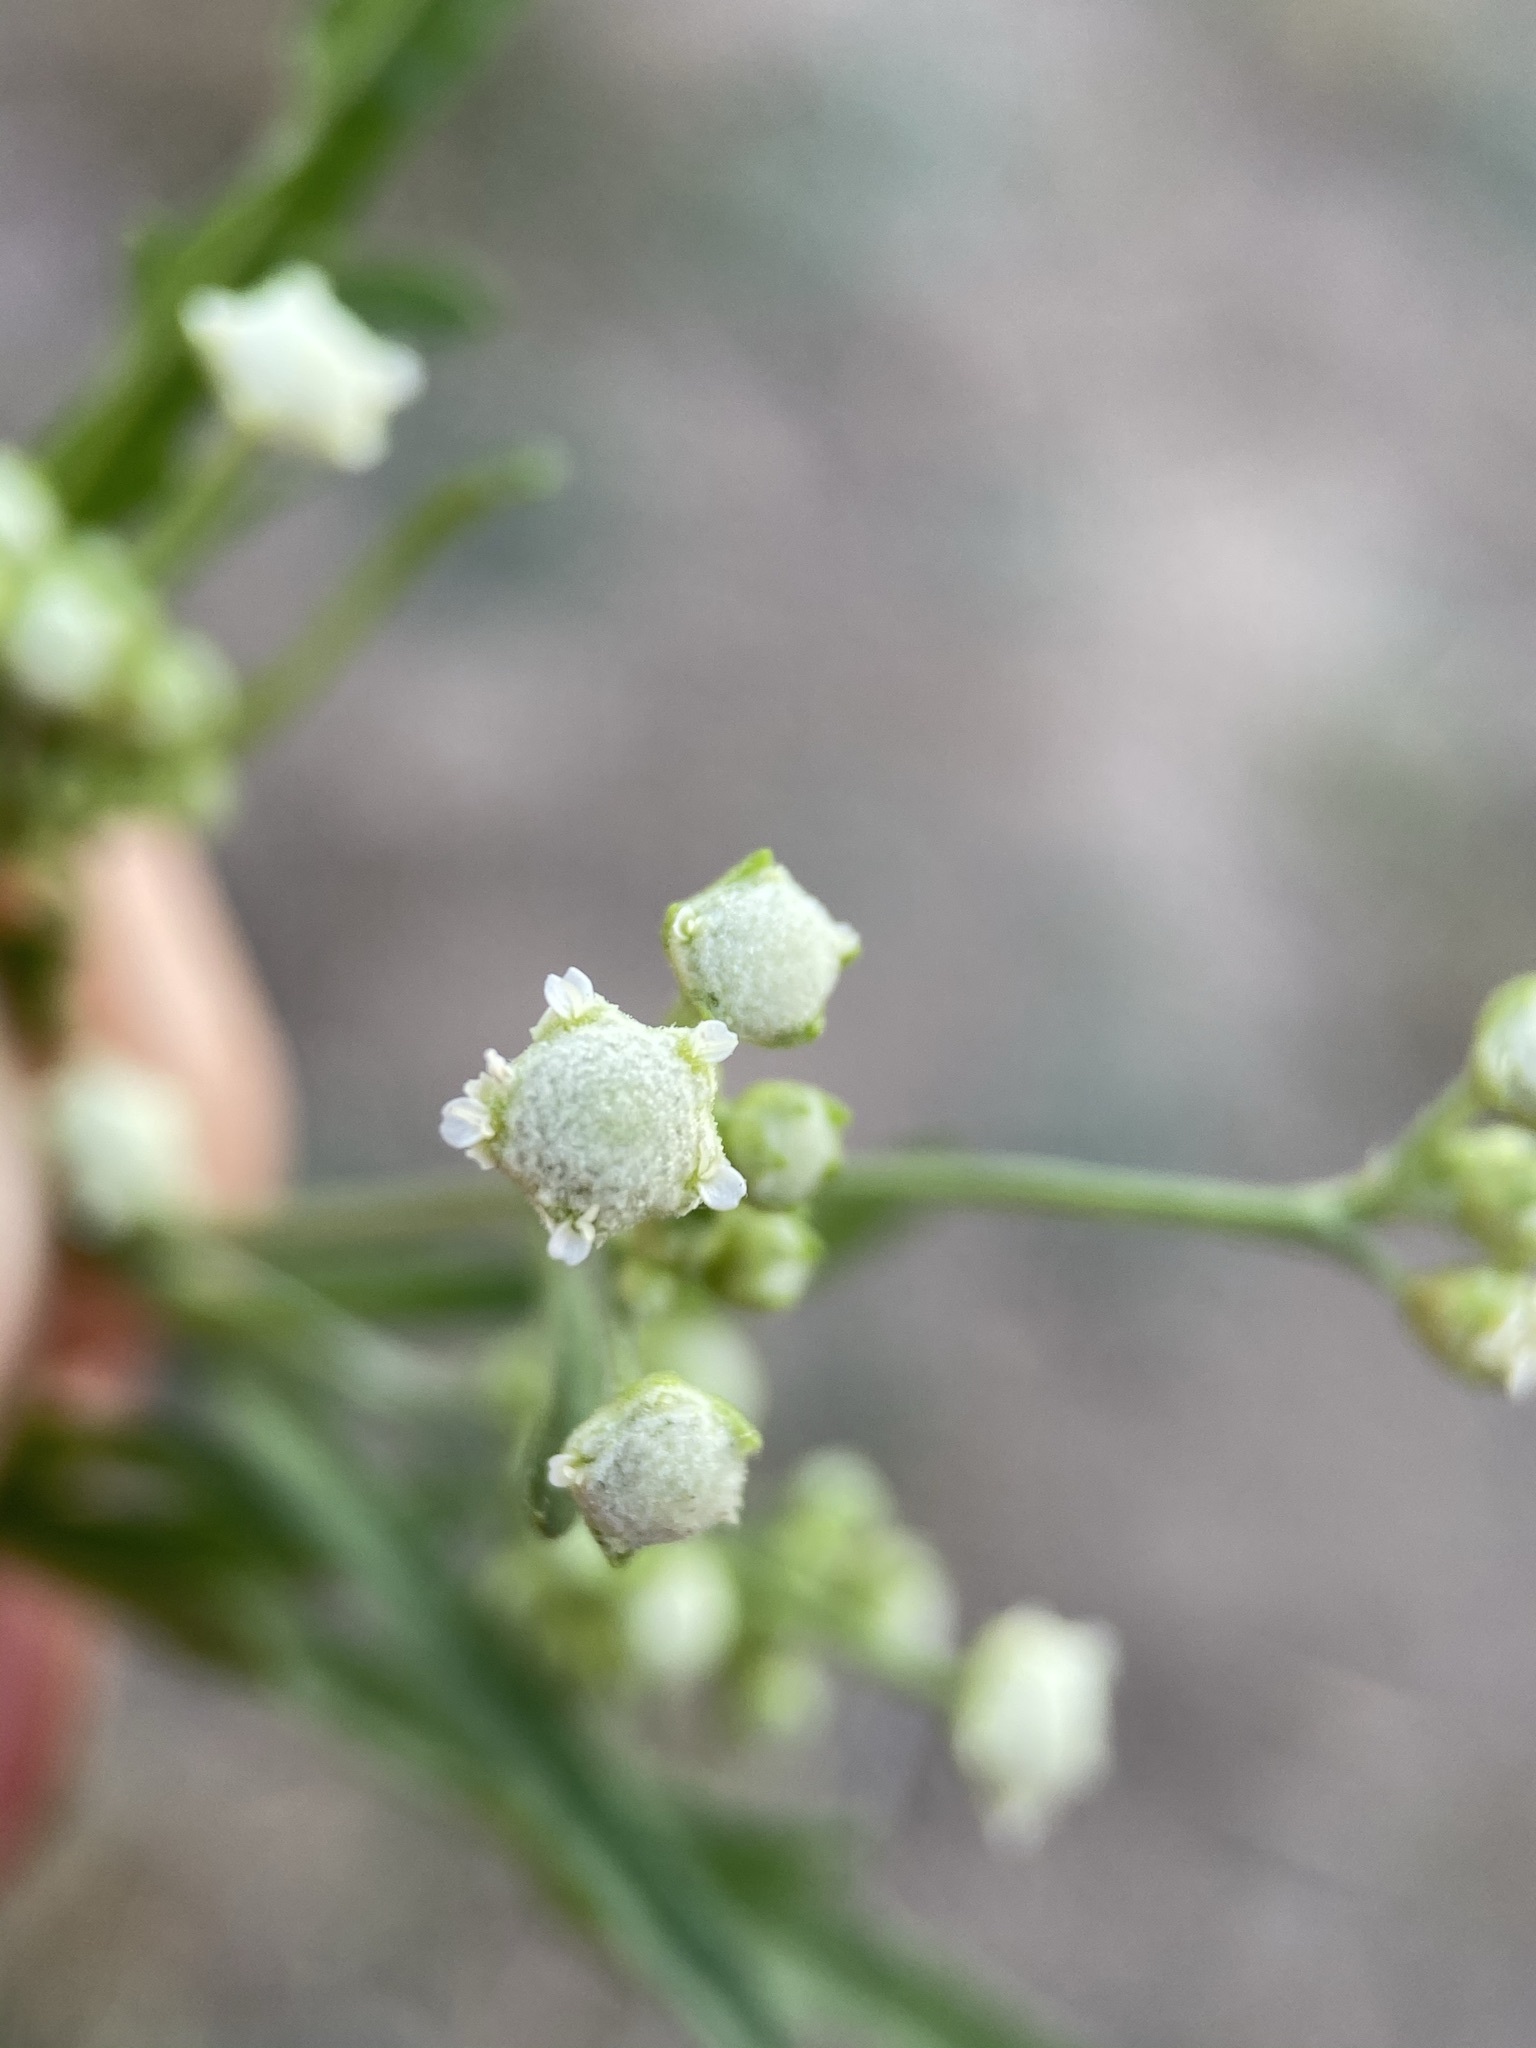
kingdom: Plantae
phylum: Tracheophyta
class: Magnoliopsida
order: Asterales
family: Asteraceae
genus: Parthenium
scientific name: Parthenium hysterophorus
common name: Santa maria feverfew
